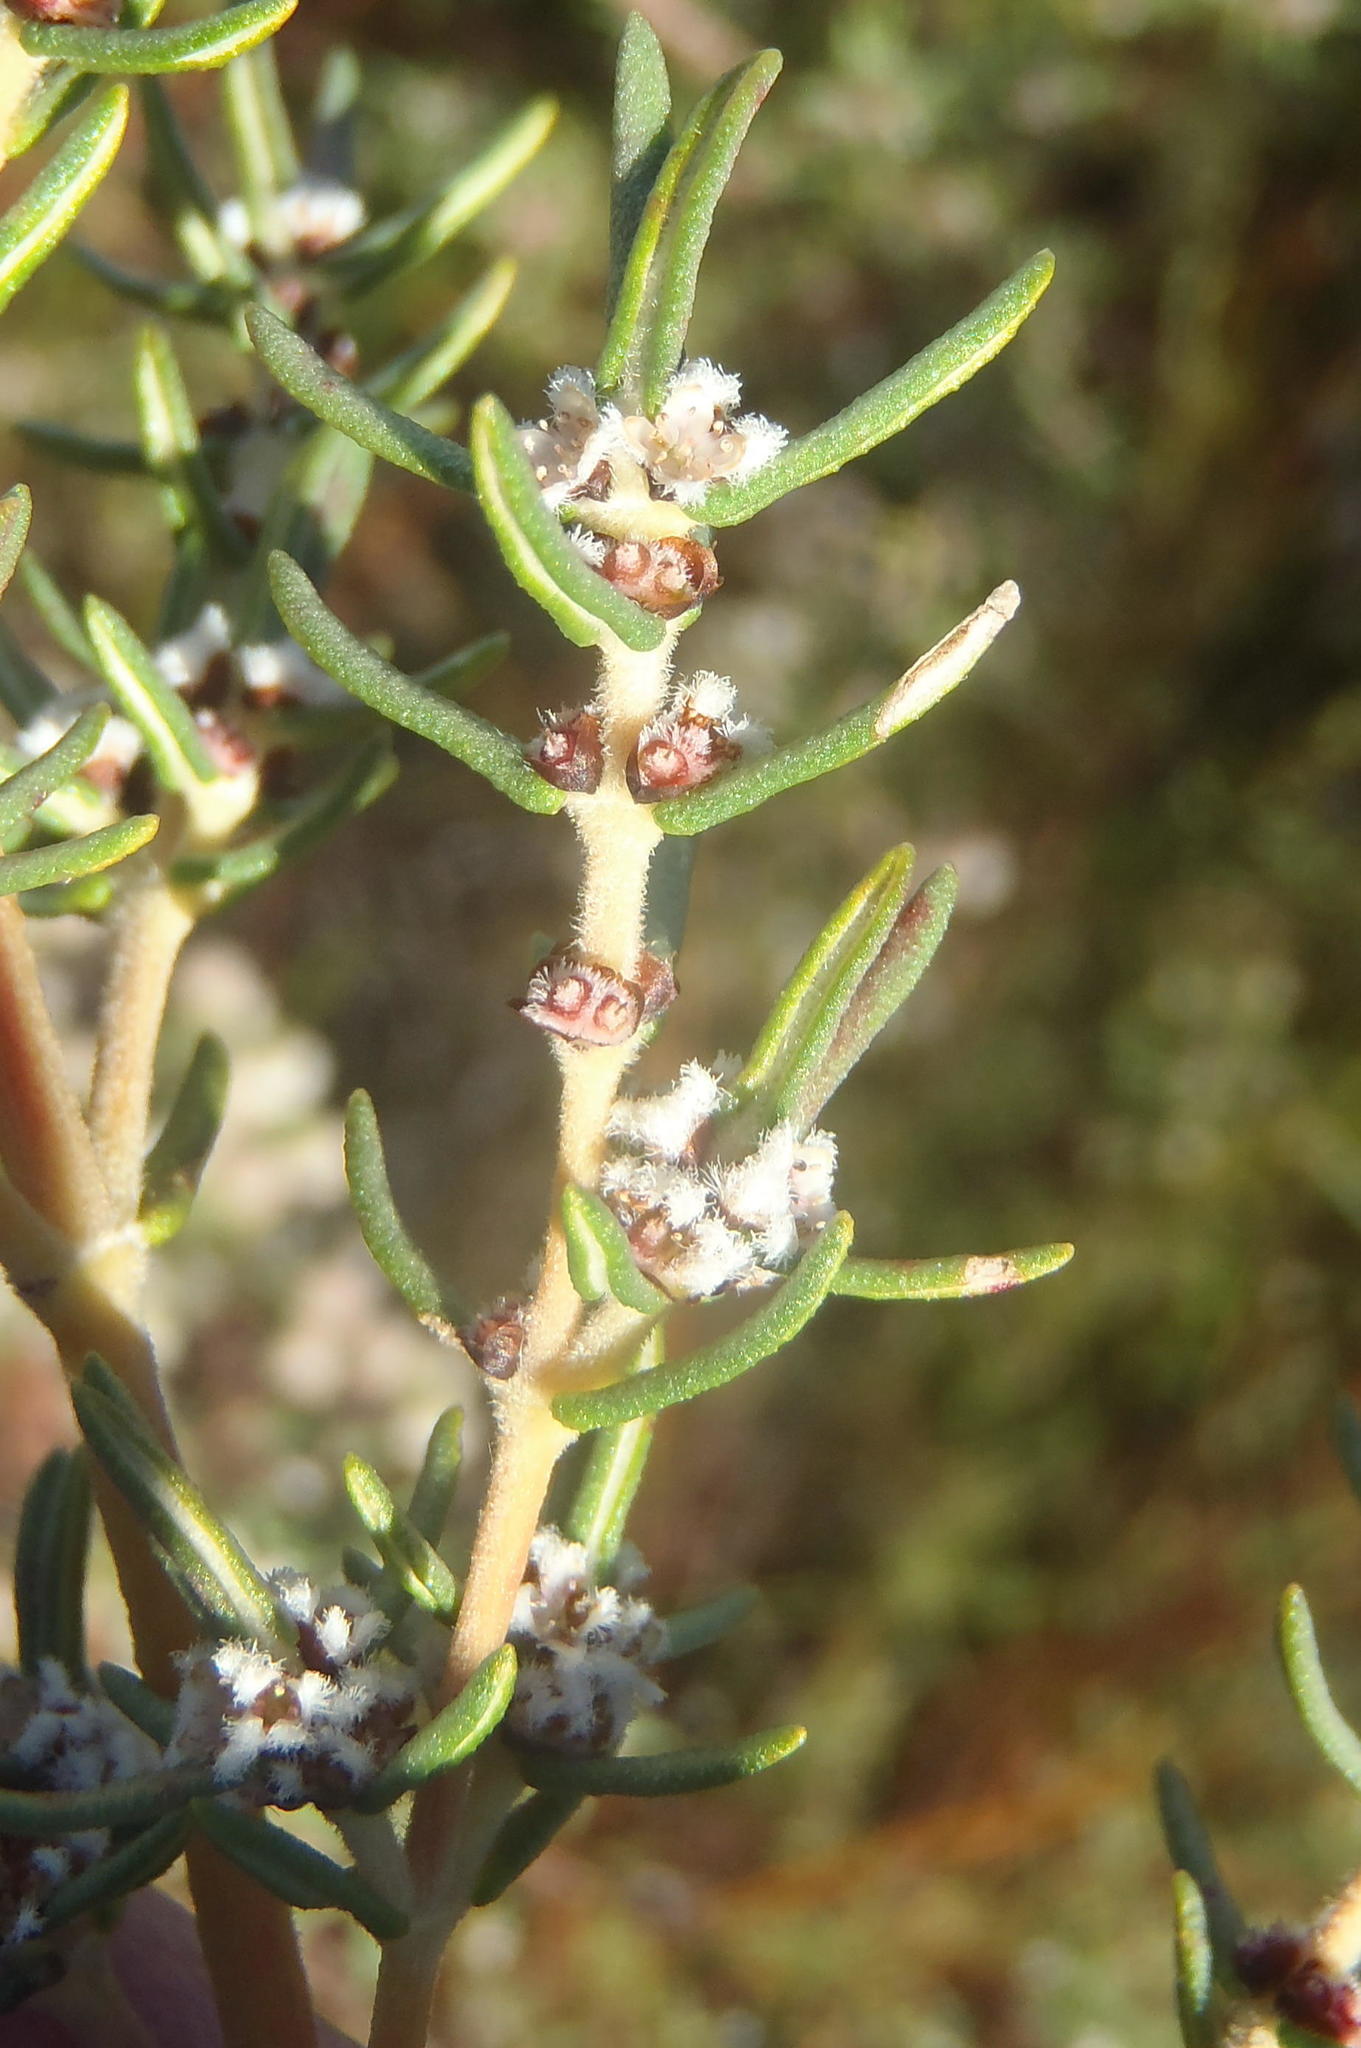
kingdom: Plantae
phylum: Tracheophyta
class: Magnoliopsida
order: Cornales
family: Grubbiaceae
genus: Grubbia
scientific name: Grubbia rosmarinifolia
